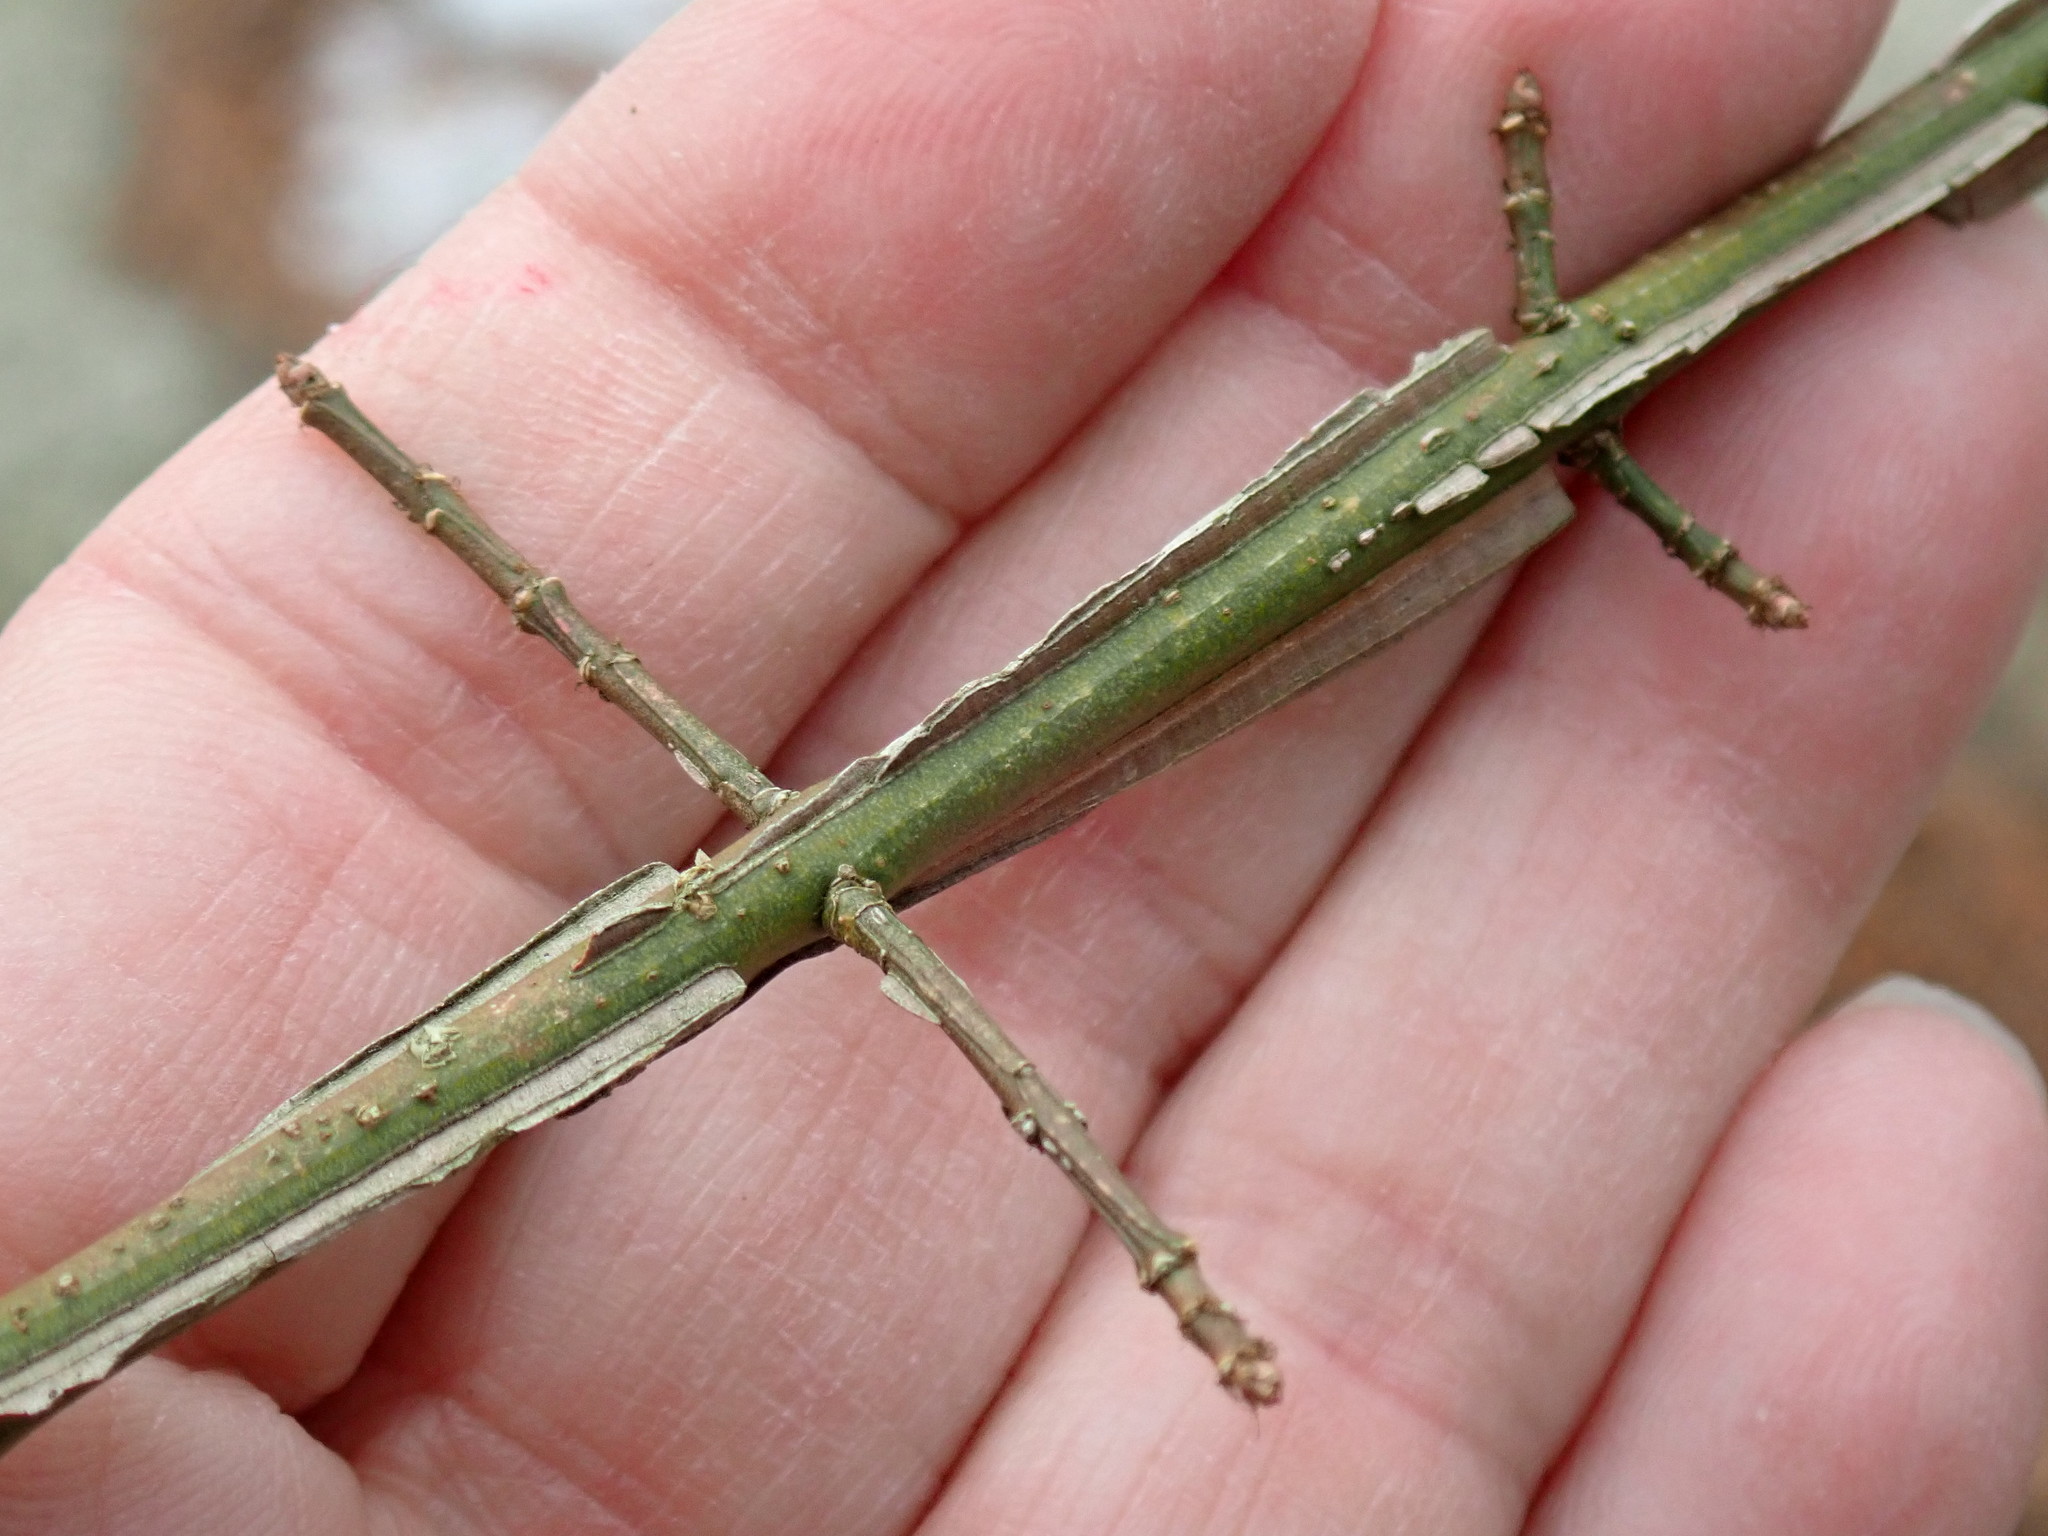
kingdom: Plantae
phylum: Tracheophyta
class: Magnoliopsida
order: Celastrales
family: Celastraceae
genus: Euonymus
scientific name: Euonymus alatus
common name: Winged euonymus
